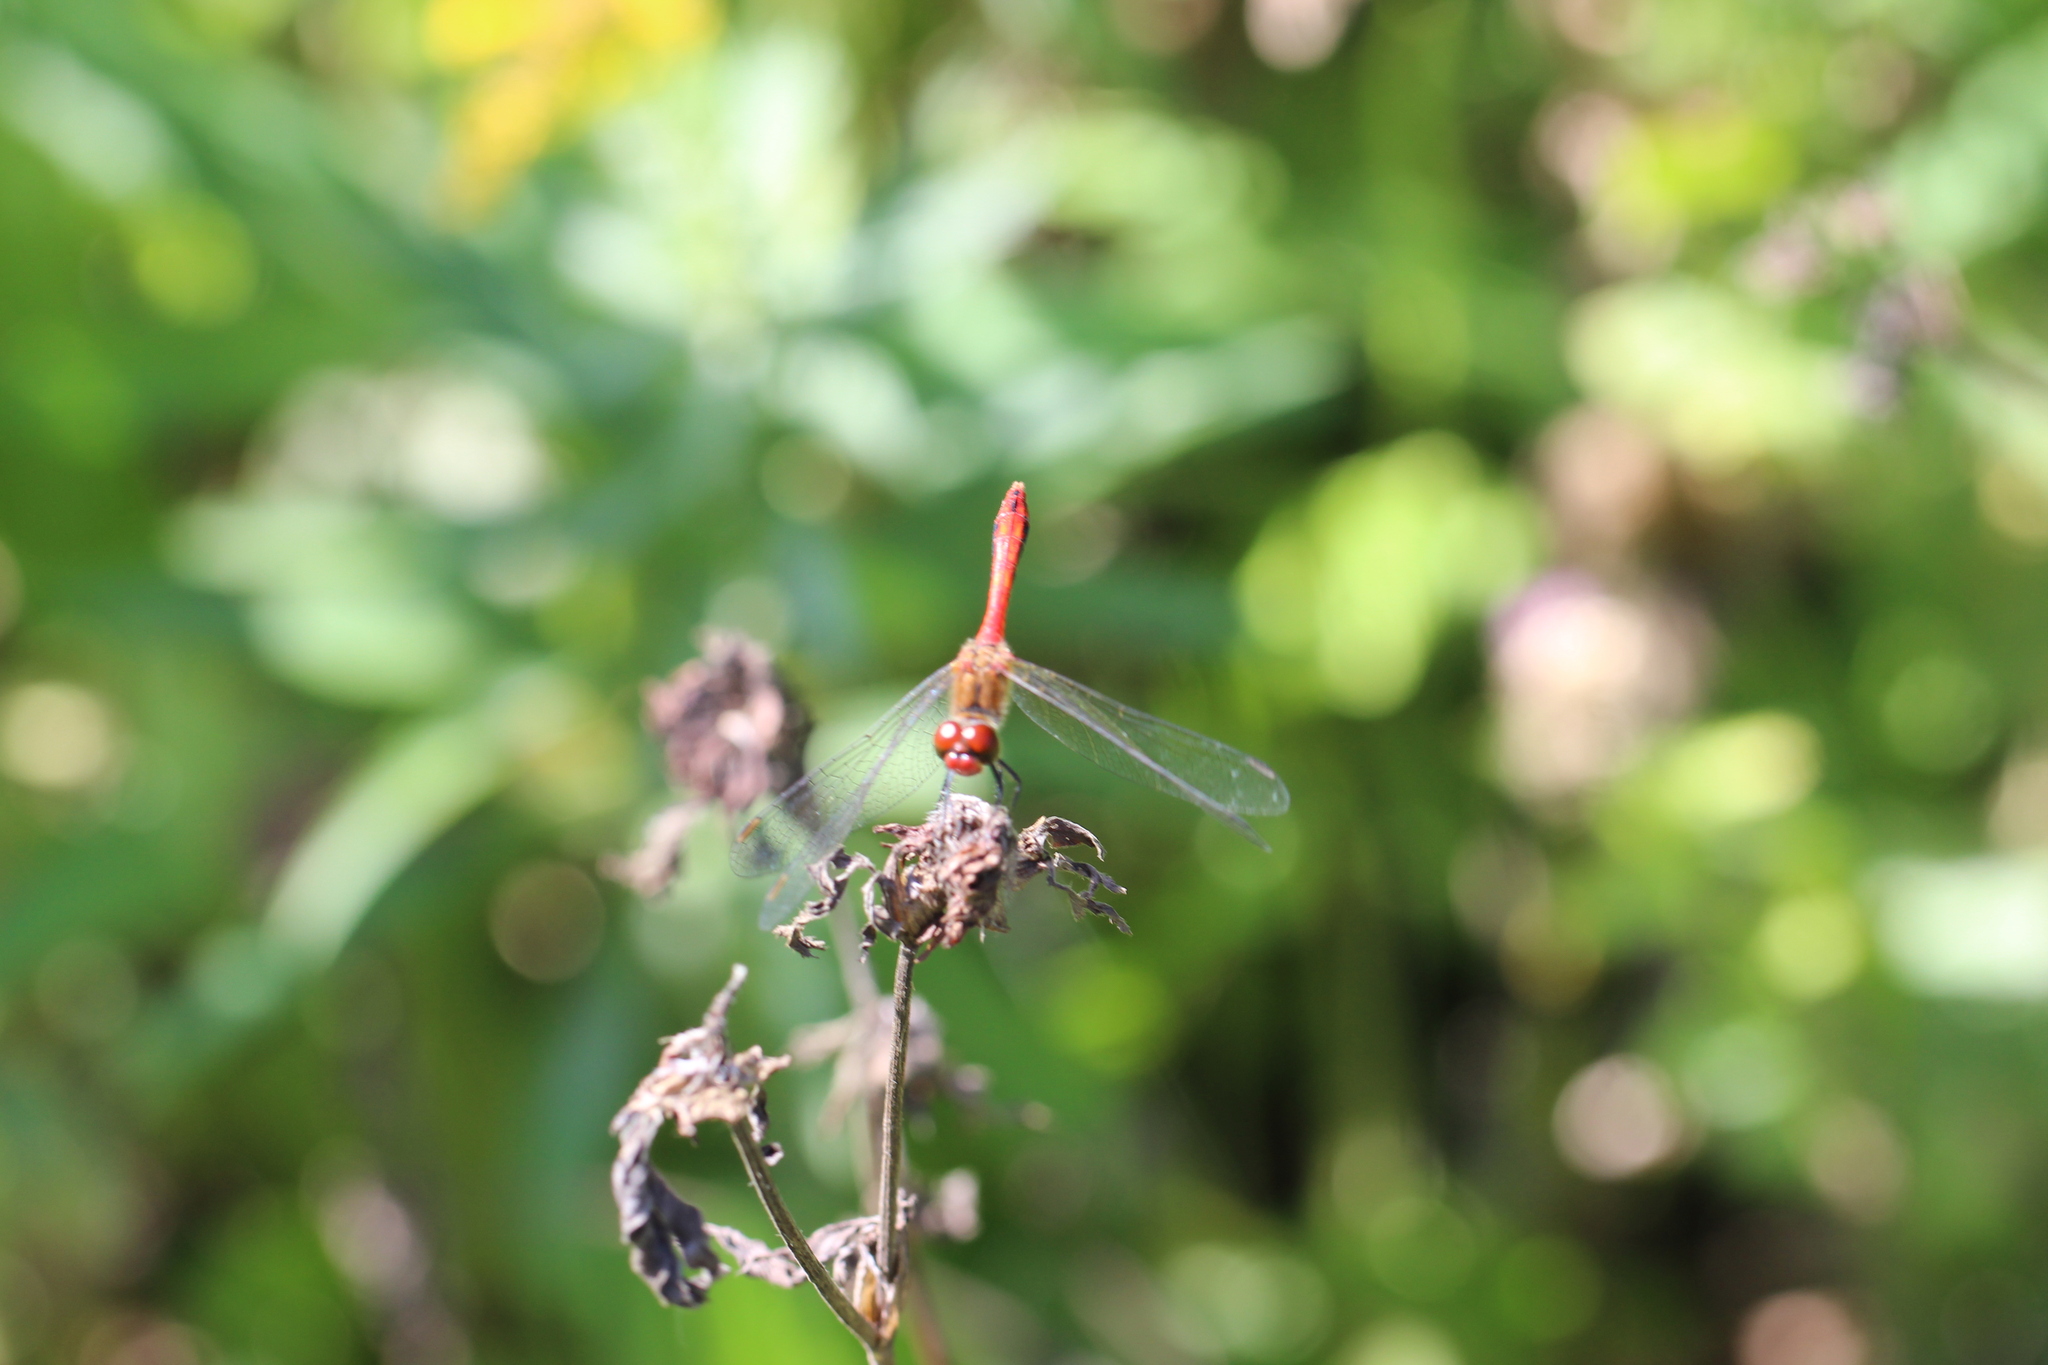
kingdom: Animalia
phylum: Arthropoda
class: Insecta
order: Odonata
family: Libellulidae
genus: Sympetrum
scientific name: Sympetrum sanguineum
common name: Ruddy darter
